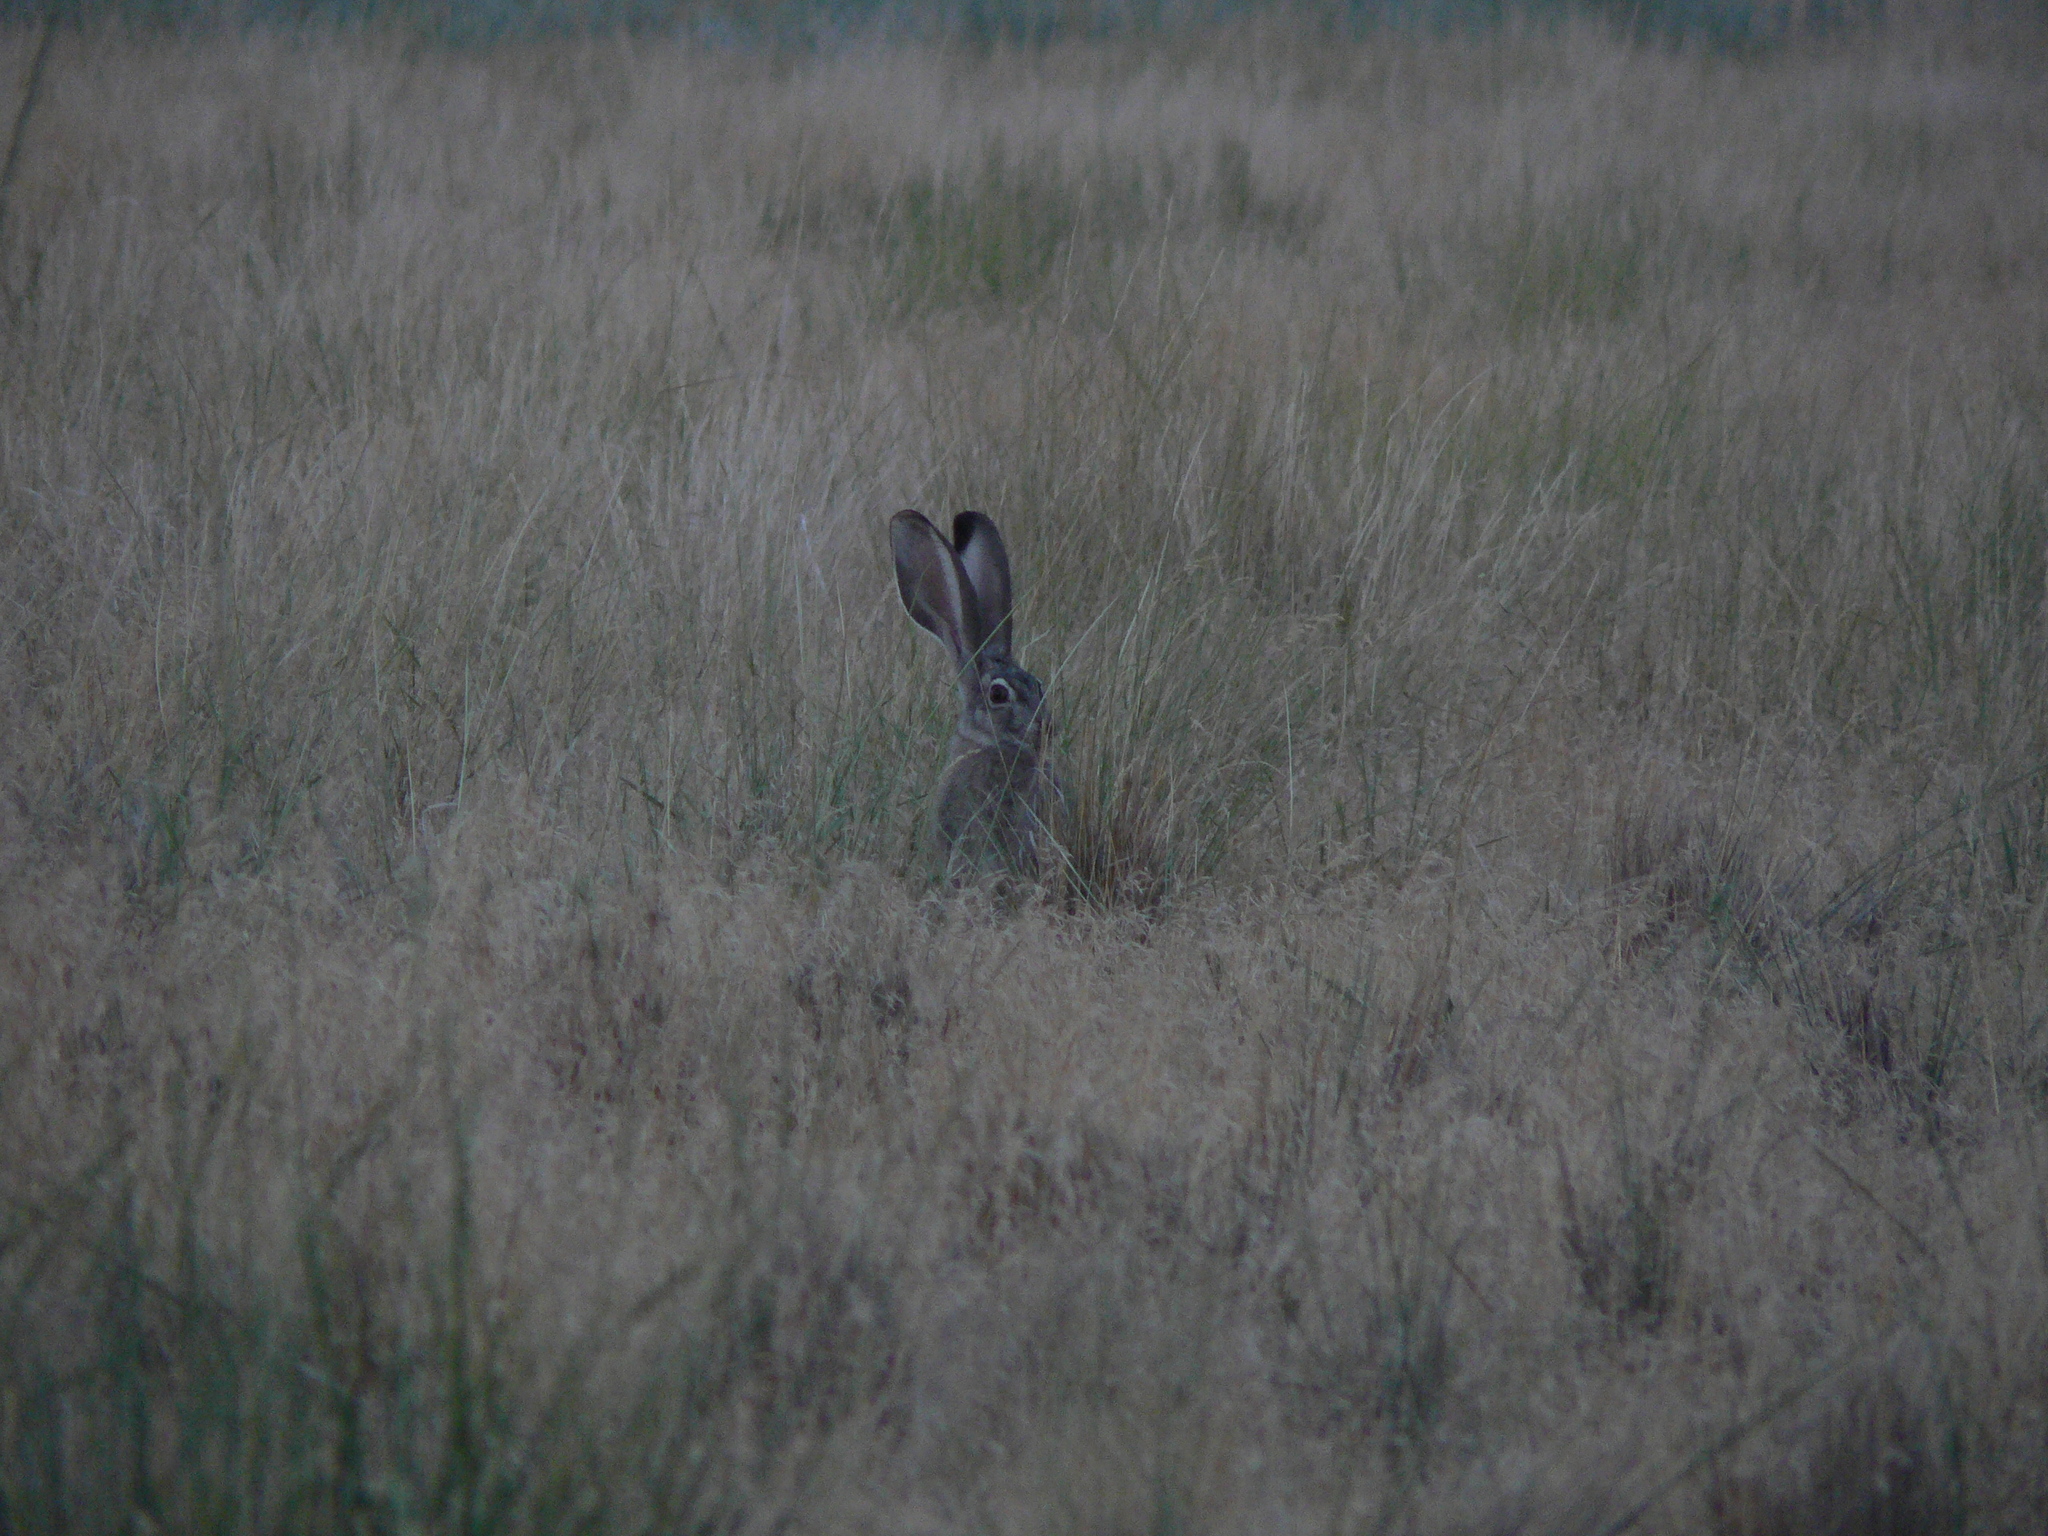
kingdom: Animalia
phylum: Chordata
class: Mammalia
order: Lagomorpha
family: Leporidae
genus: Lepus
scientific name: Lepus californicus
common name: Black-tailed jackrabbit
